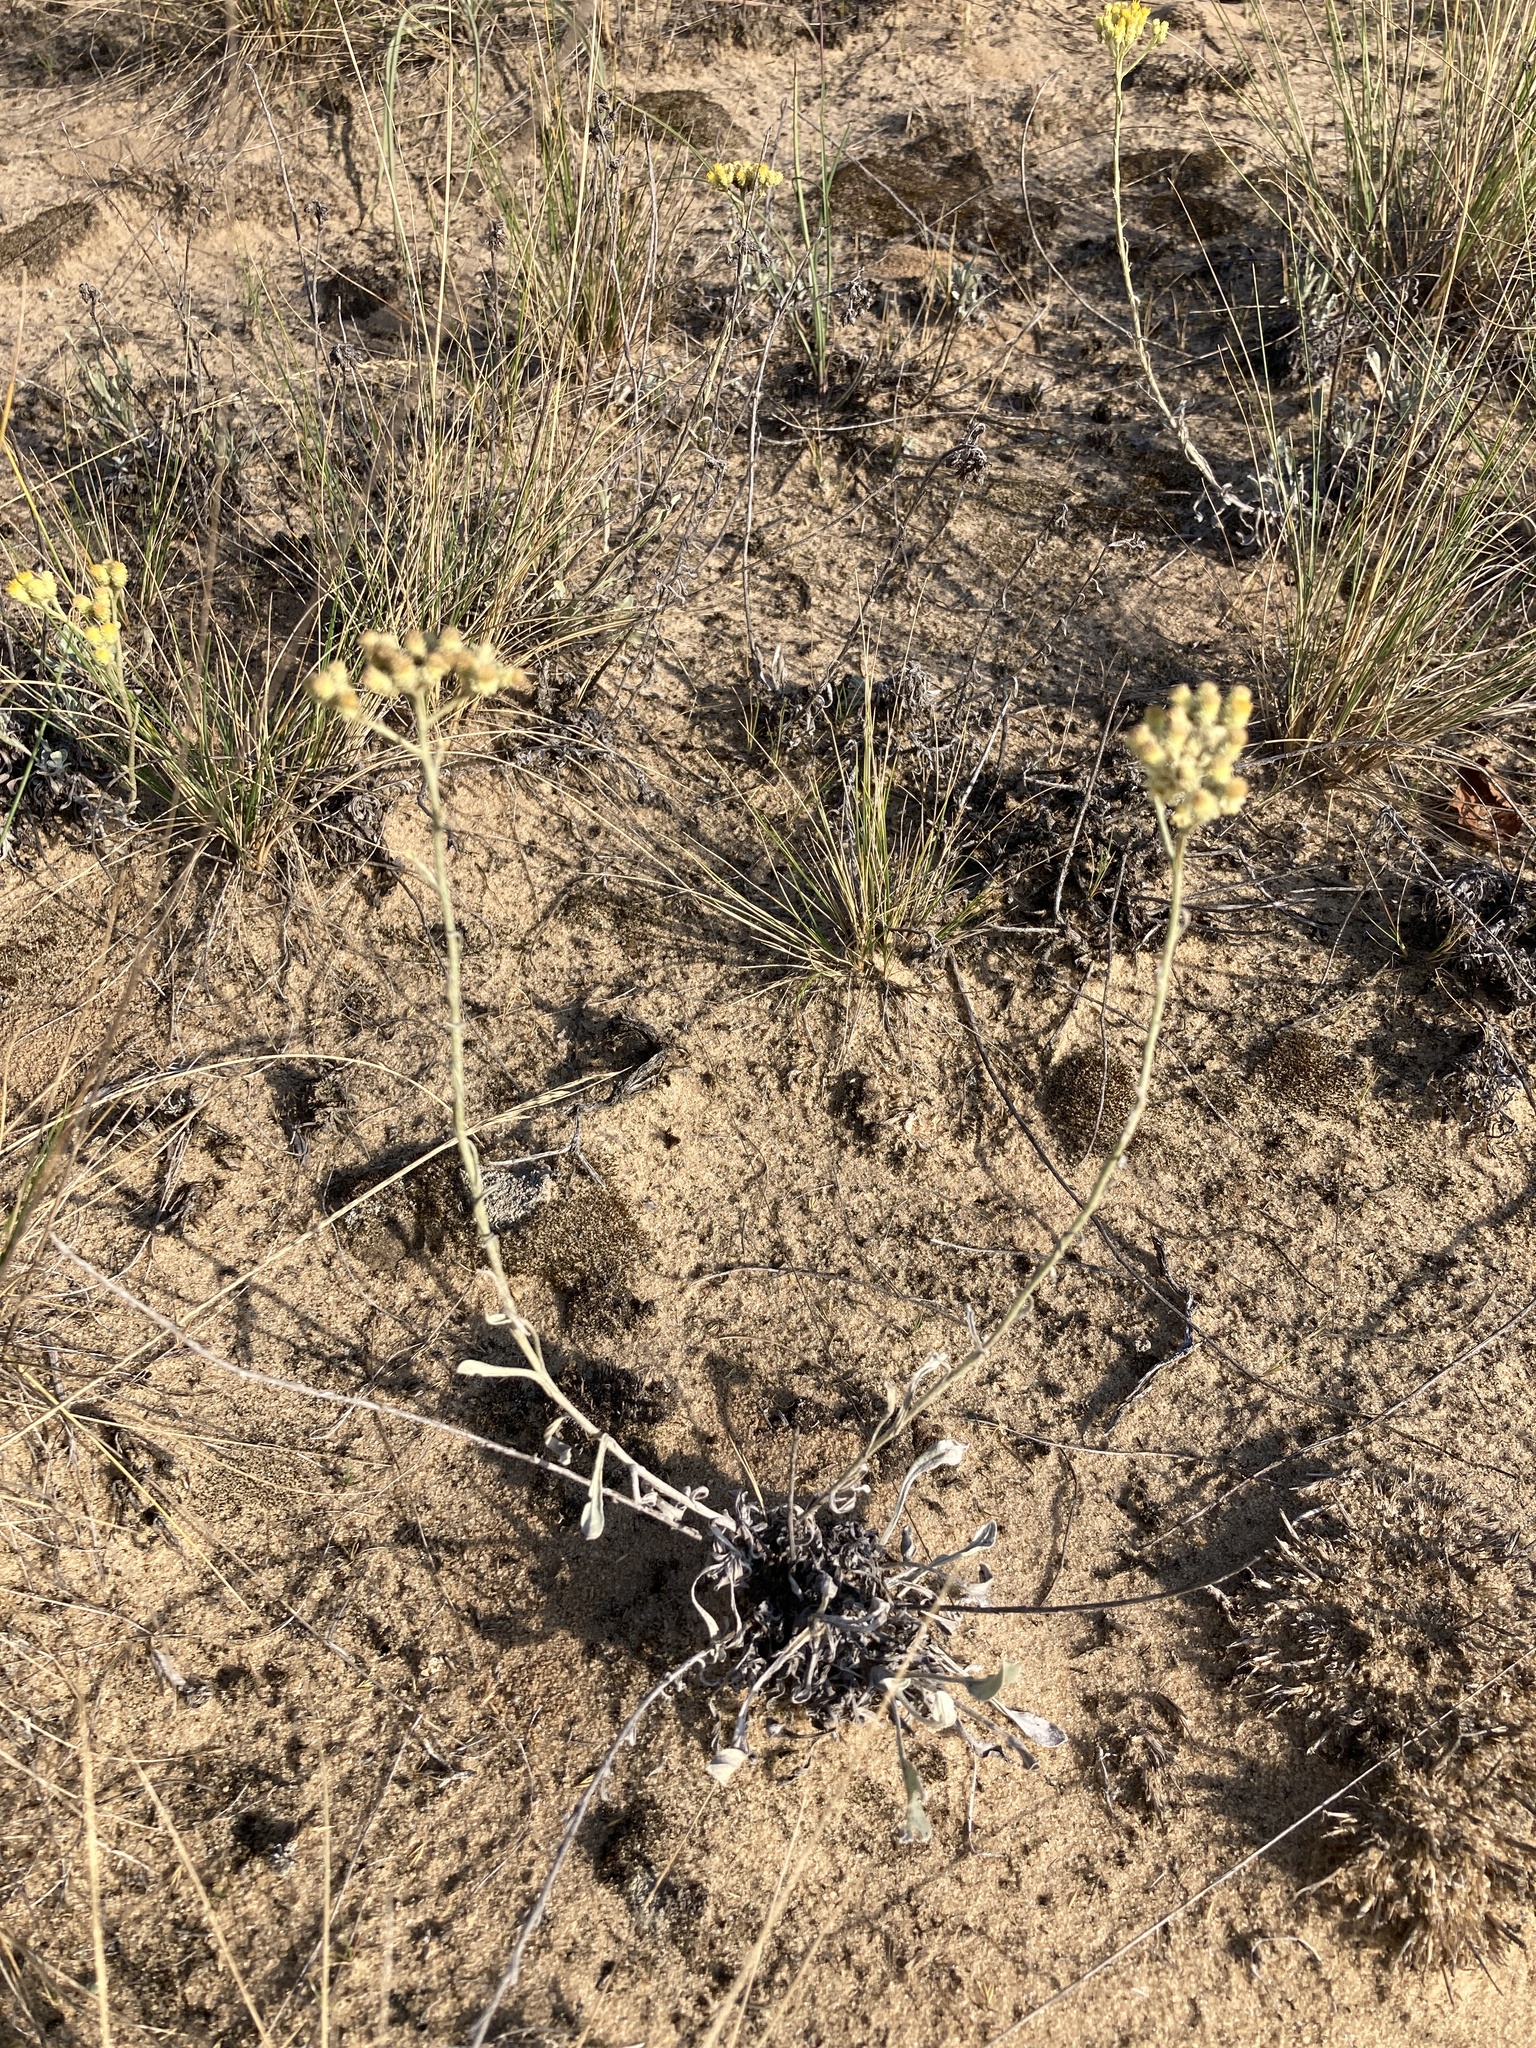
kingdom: Plantae
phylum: Tracheophyta
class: Magnoliopsida
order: Asterales
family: Asteraceae
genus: Helichrysum
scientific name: Helichrysum arenarium
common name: Strawflower
